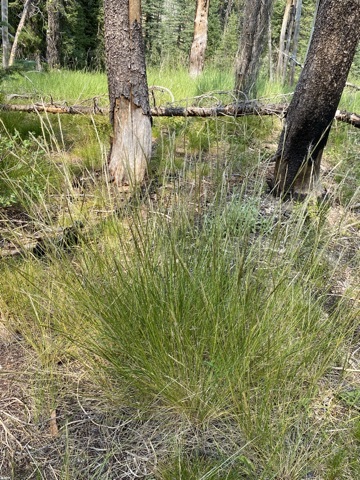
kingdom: Plantae
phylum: Tracheophyta
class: Liliopsida
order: Poales
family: Poaceae
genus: Eriocoma
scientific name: Eriocoma occidentalis
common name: Stiff needlegrass
